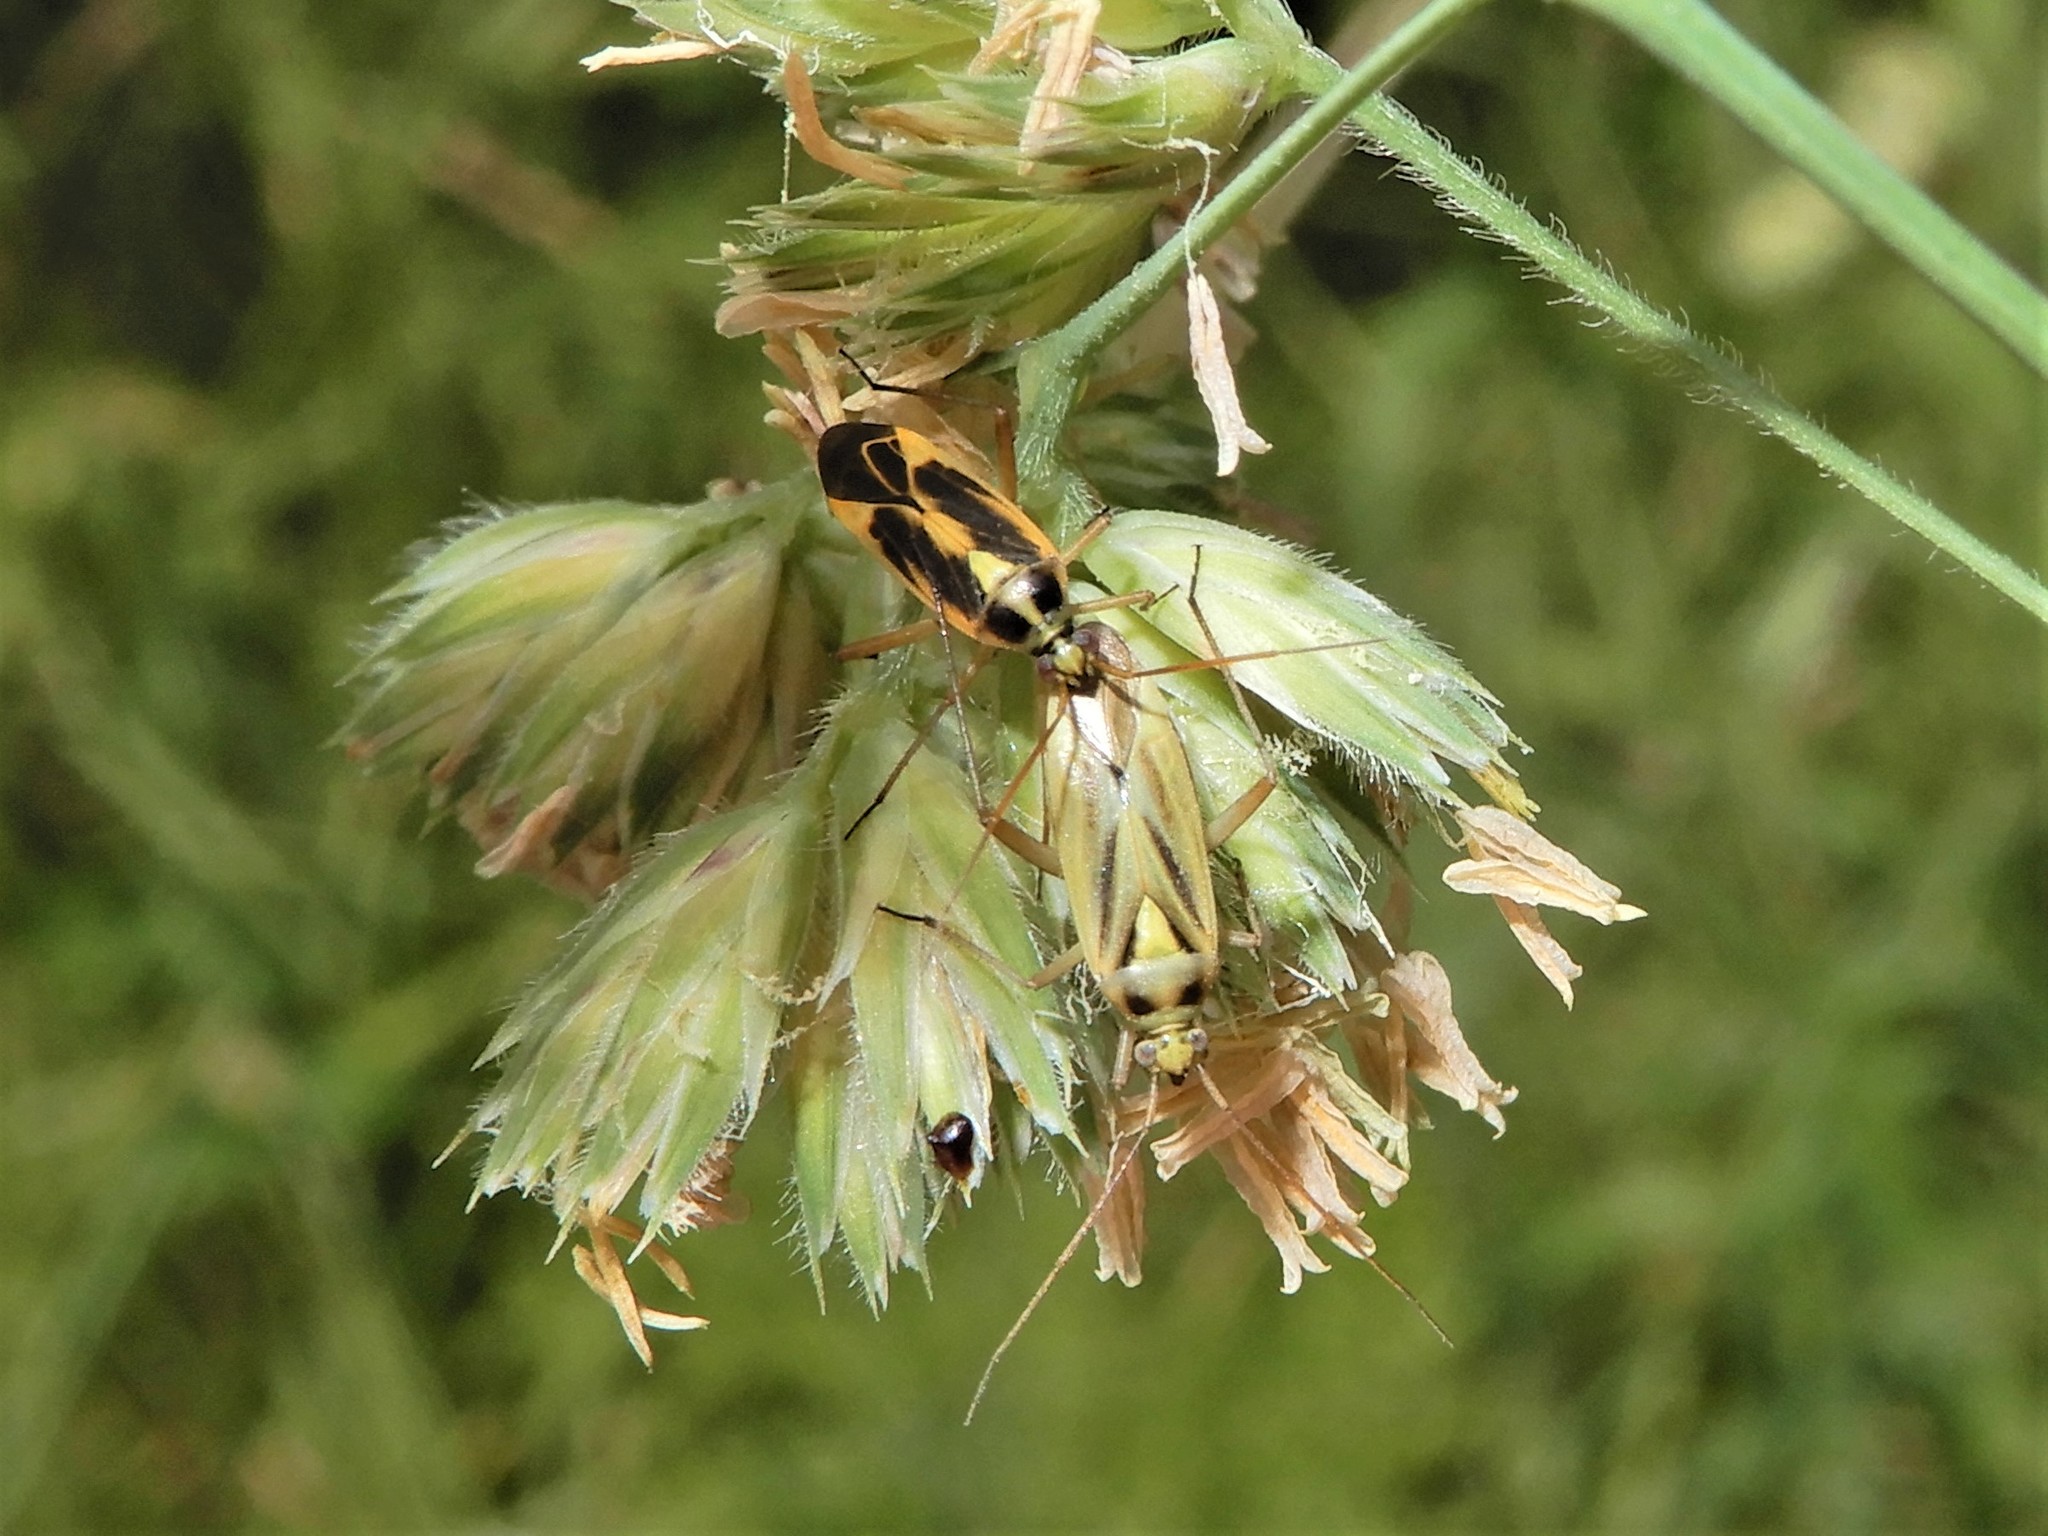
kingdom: Animalia
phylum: Arthropoda
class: Insecta
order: Hemiptera
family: Miridae
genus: Stenotus
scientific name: Stenotus binotatus
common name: Plant bug
